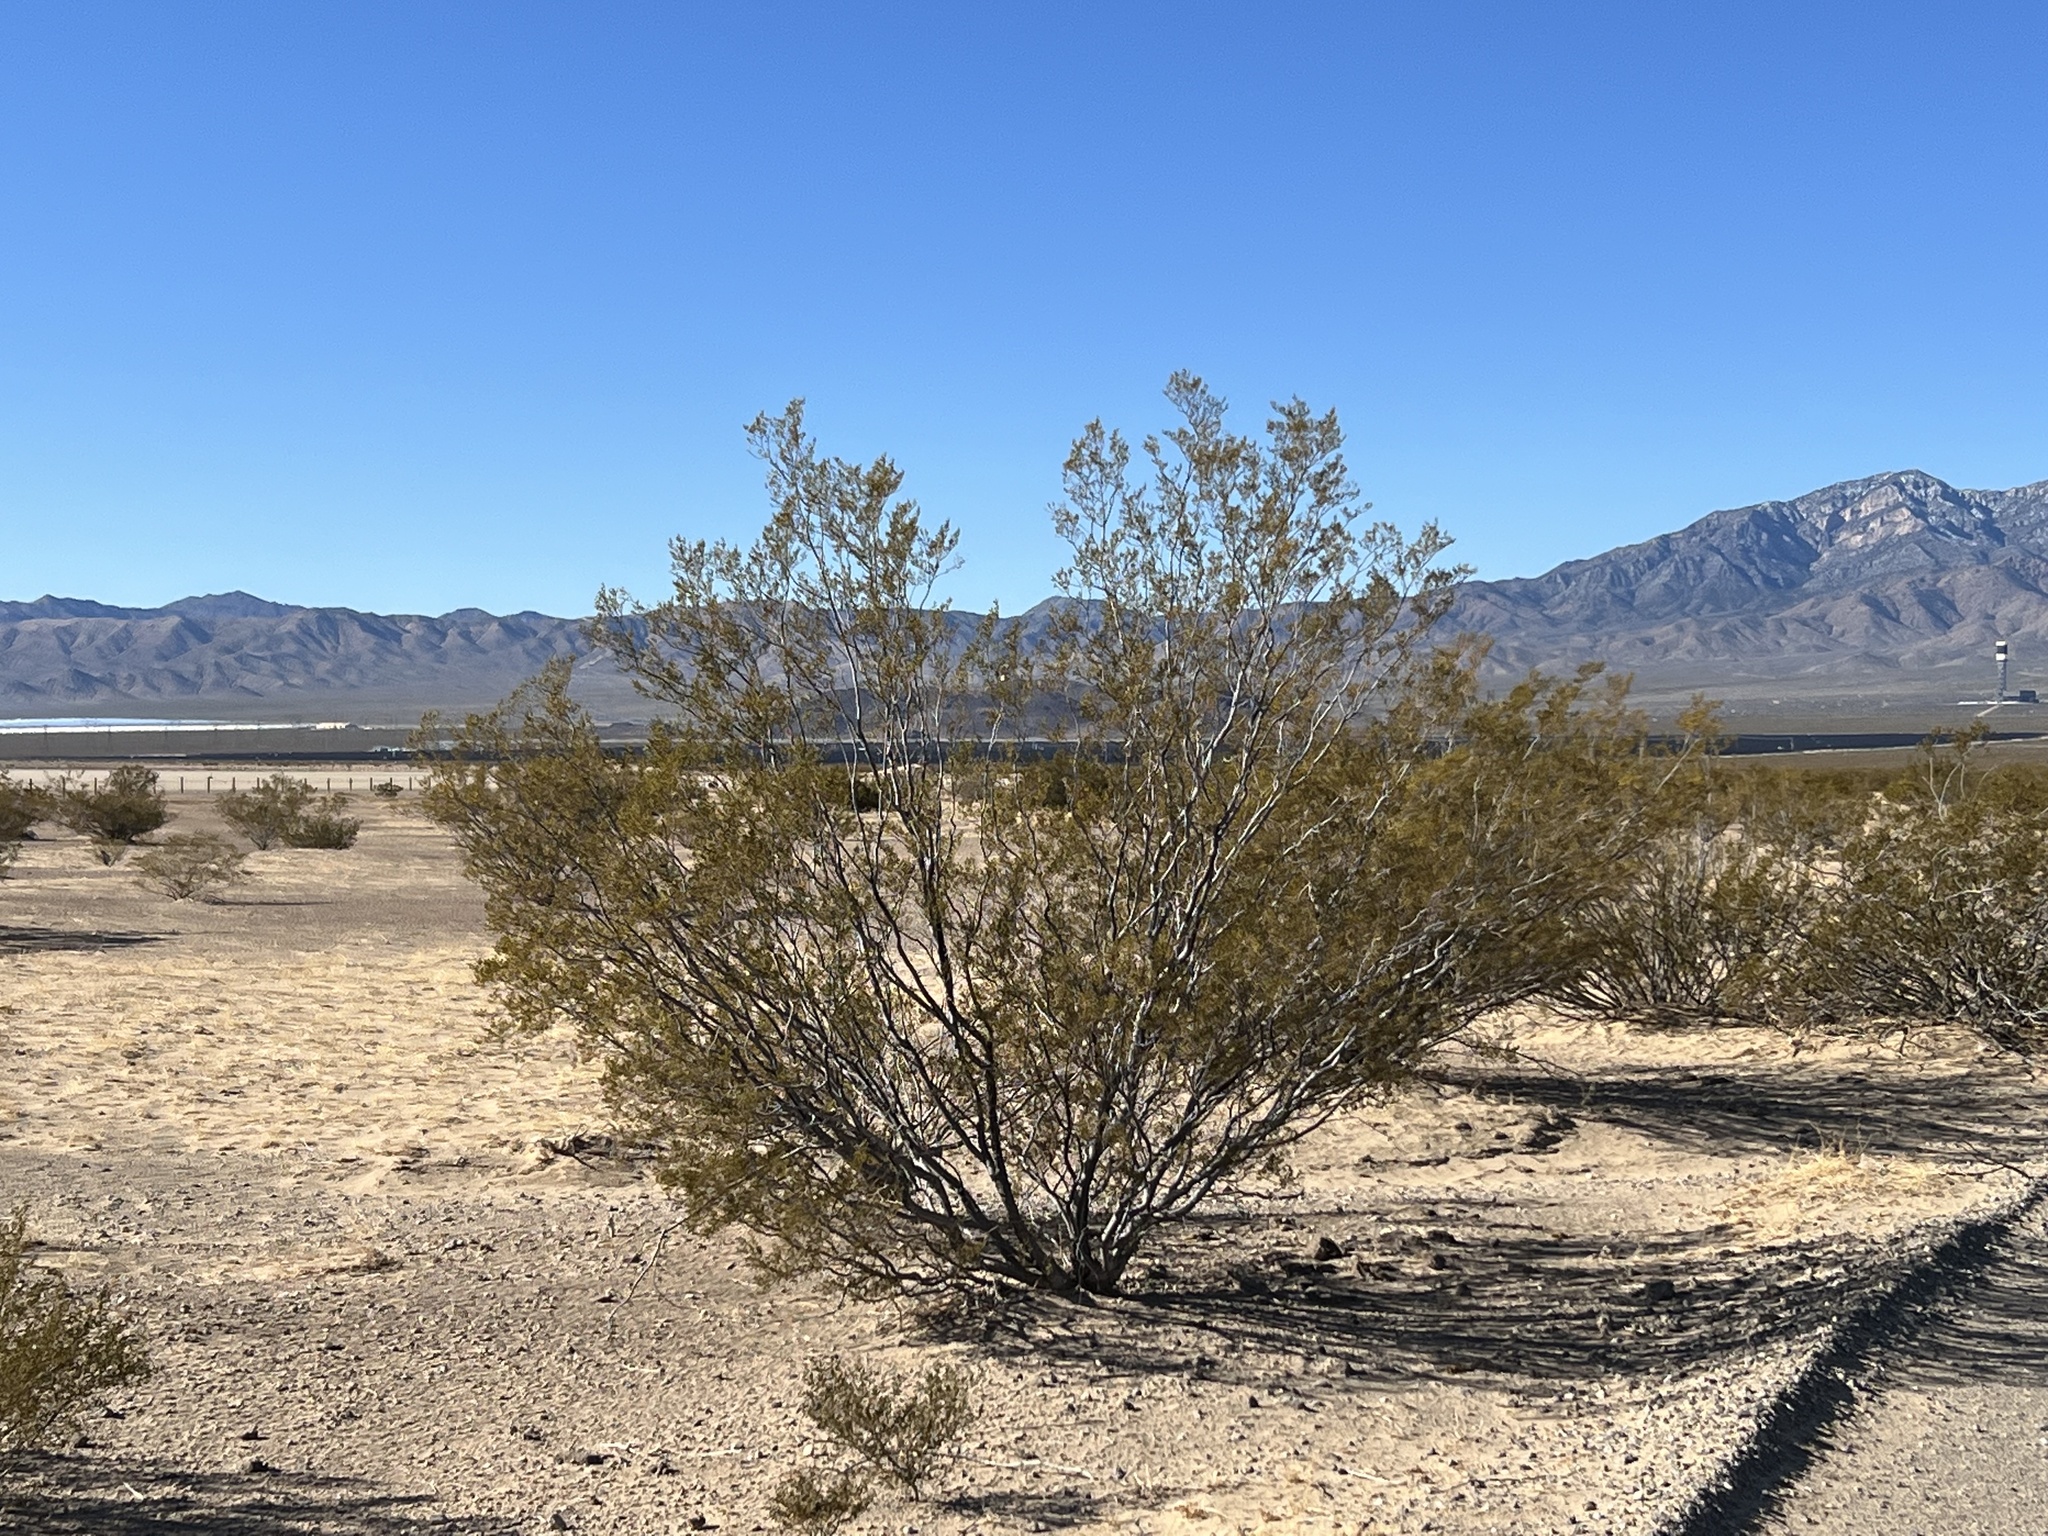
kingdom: Plantae
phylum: Tracheophyta
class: Magnoliopsida
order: Zygophyllales
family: Zygophyllaceae
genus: Larrea
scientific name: Larrea tridentata
